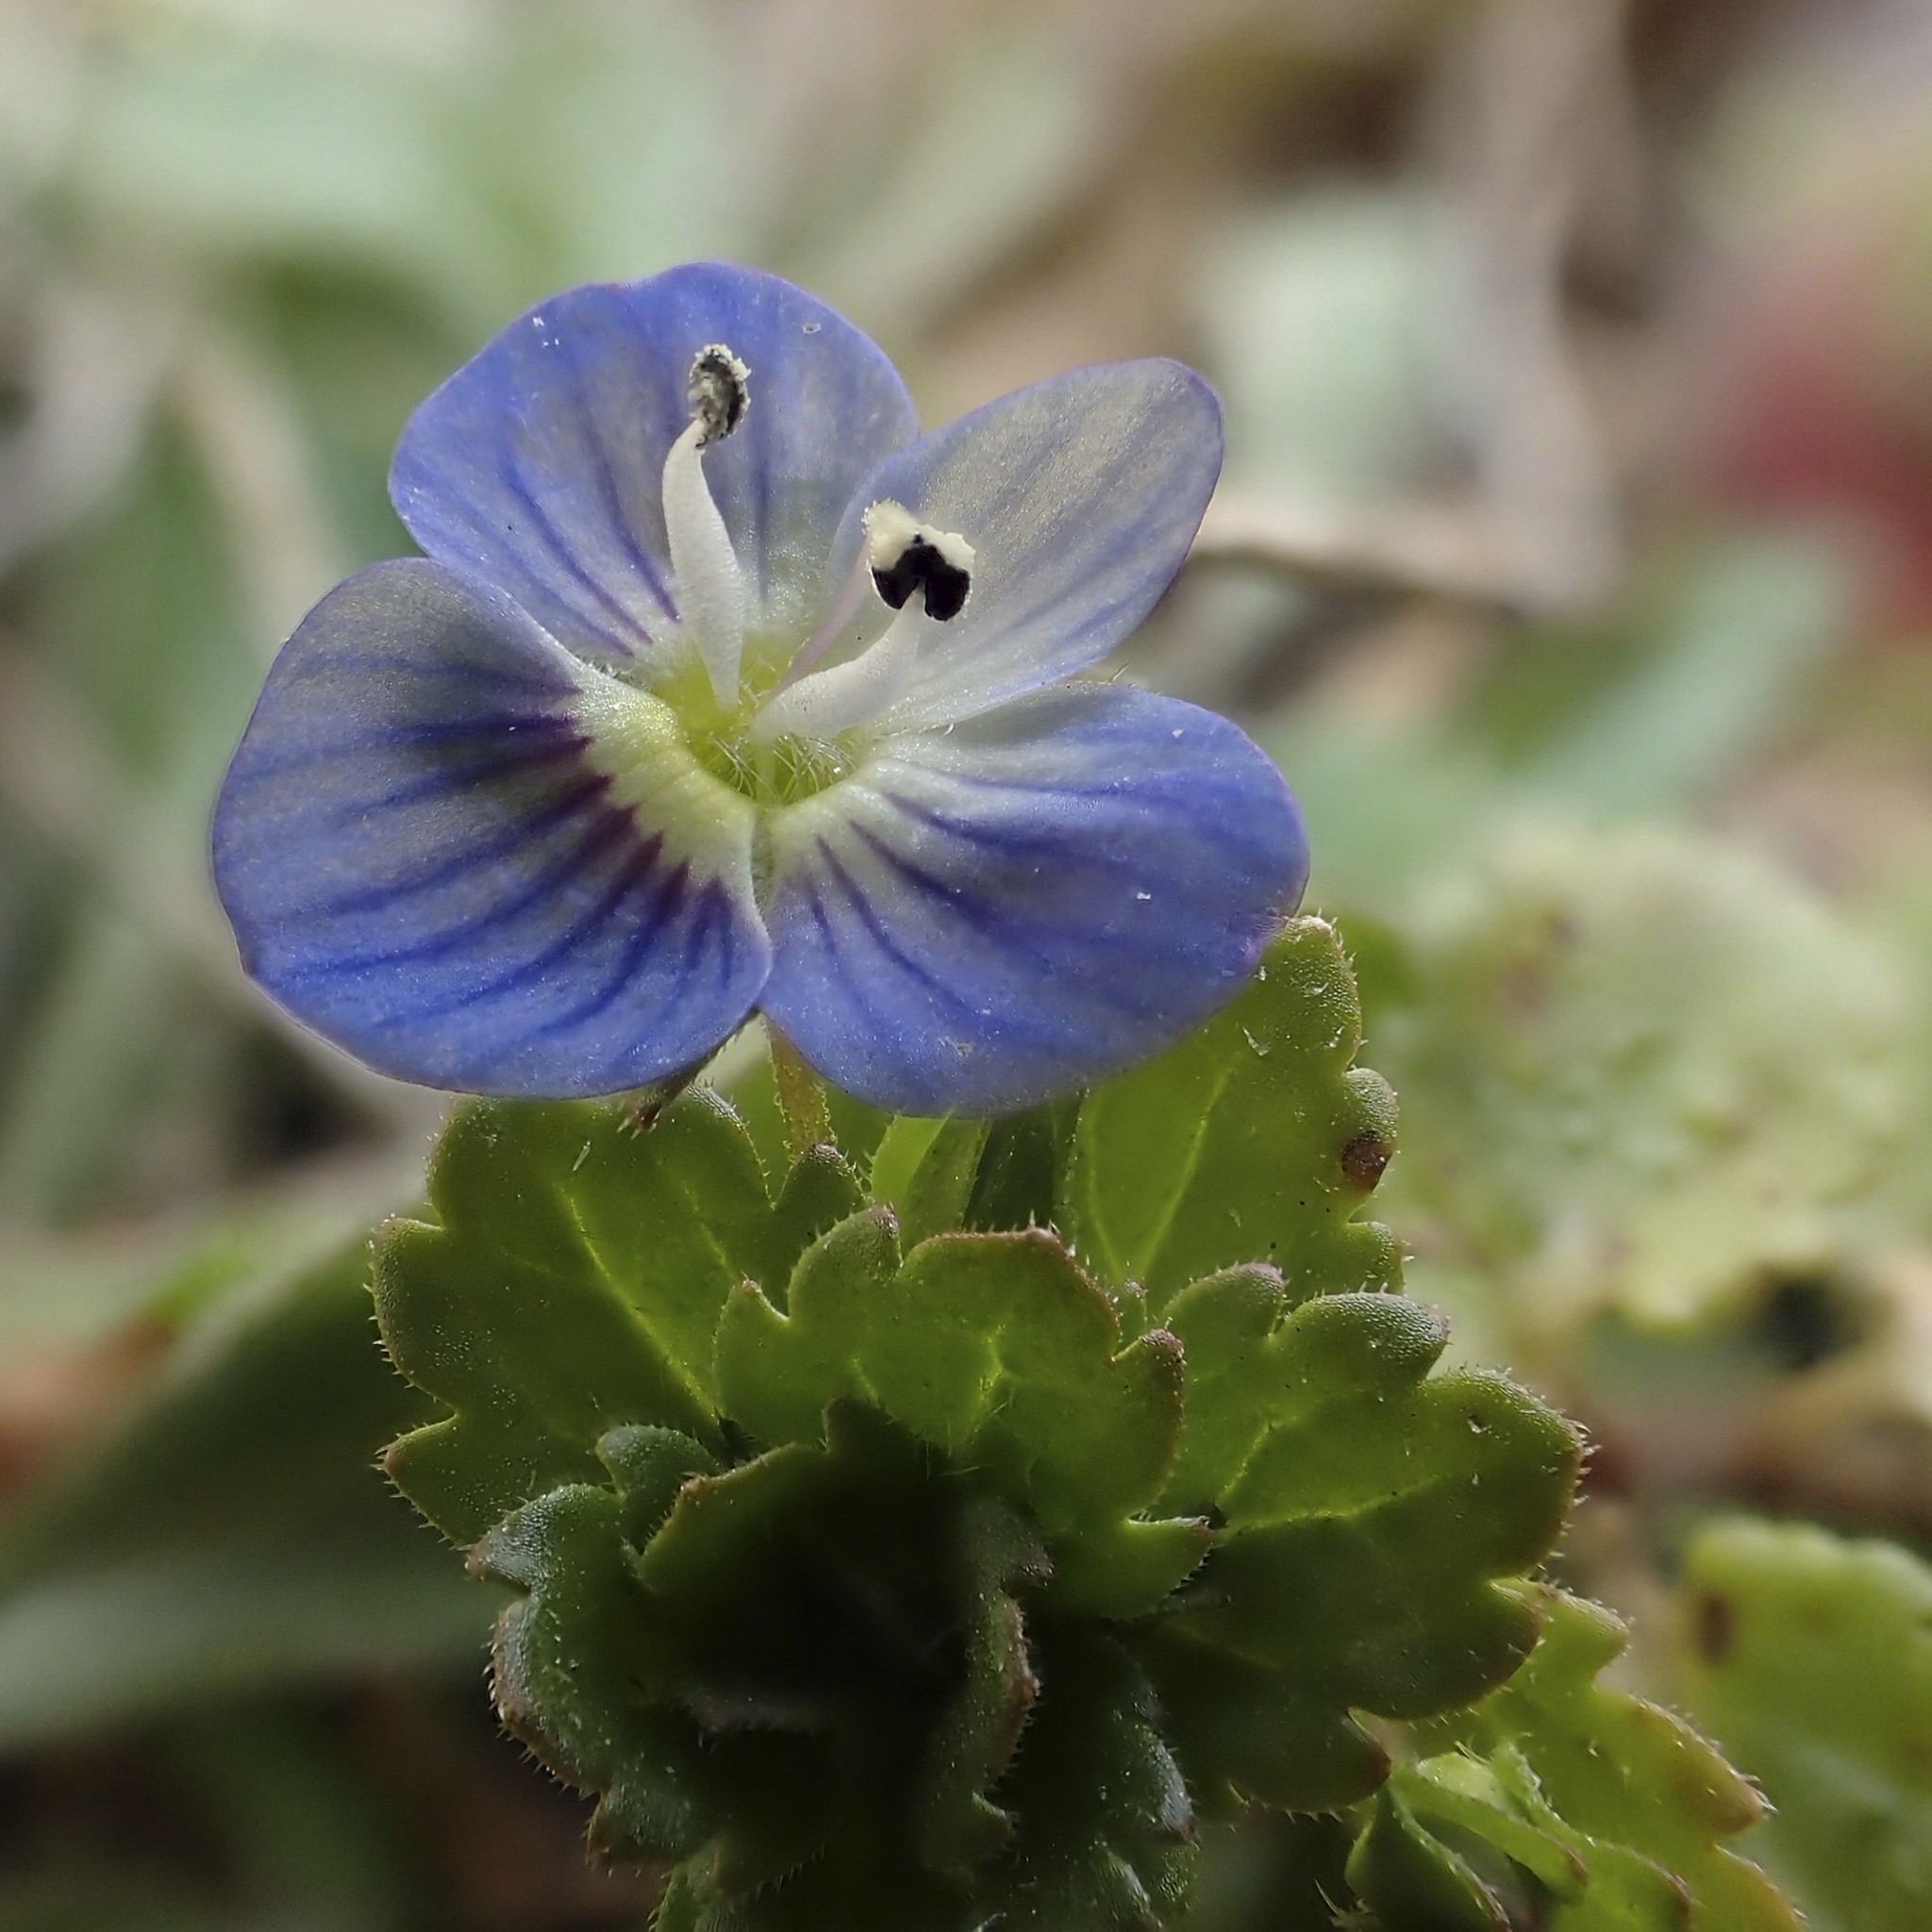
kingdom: Plantae
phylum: Tracheophyta
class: Magnoliopsida
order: Lamiales
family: Plantaginaceae
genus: Veronica
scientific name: Veronica persica
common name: Common field-speedwell
